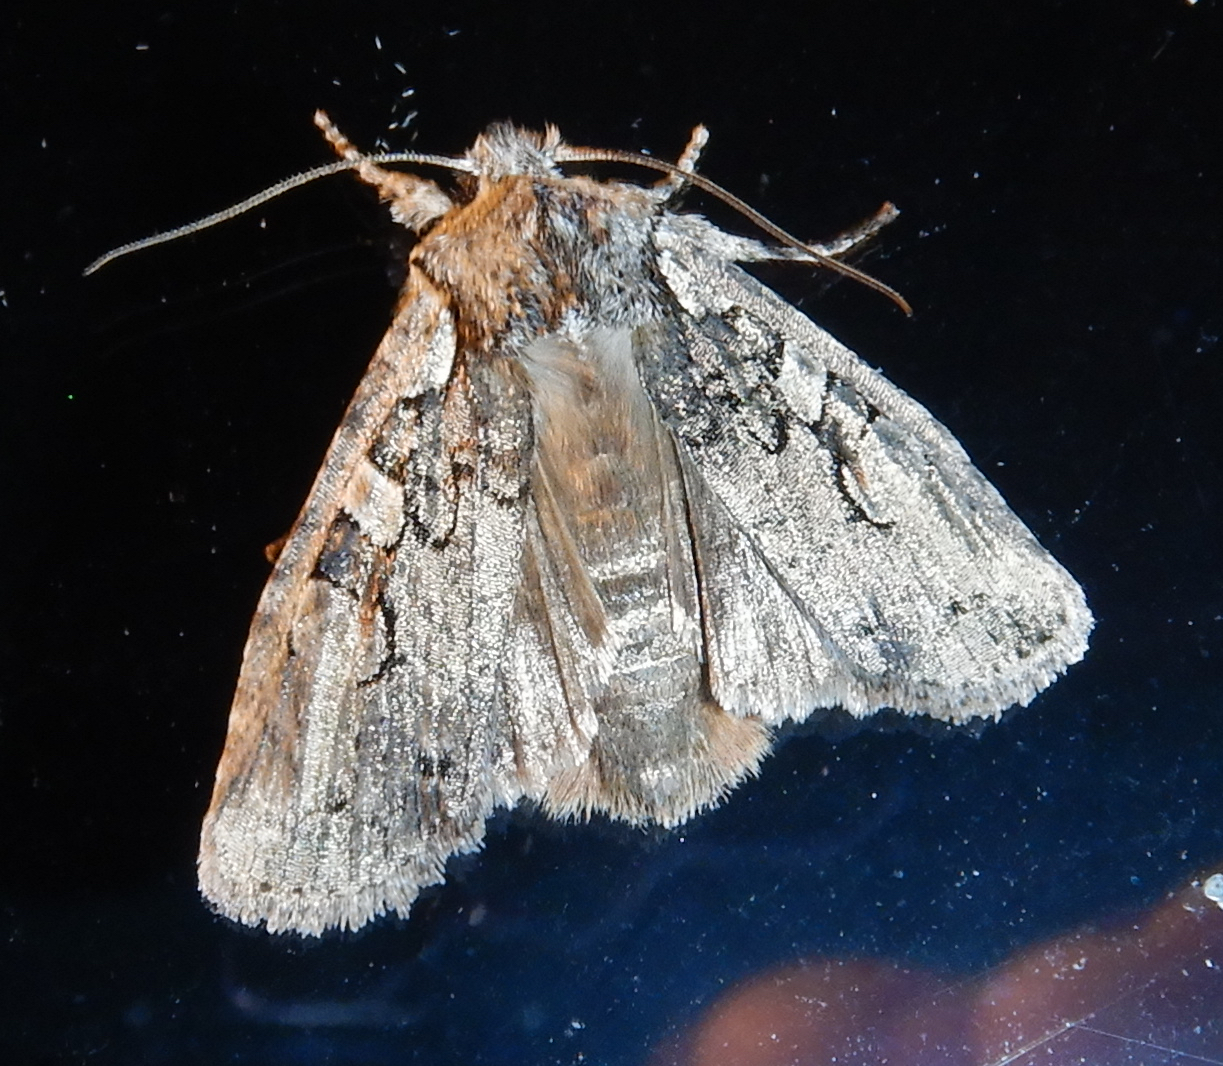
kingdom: Animalia
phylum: Arthropoda
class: Insecta
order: Lepidoptera
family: Noctuidae
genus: Lithophane
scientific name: Lithophane baileyi
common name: Bailey's pinion moth
